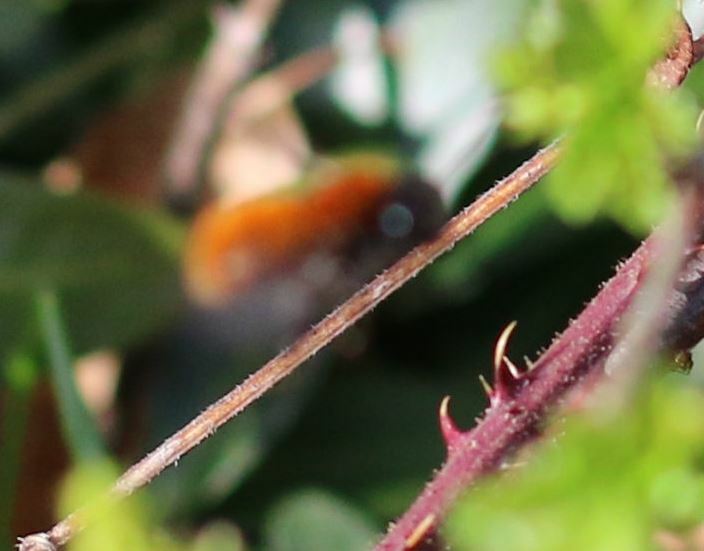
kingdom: Animalia
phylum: Arthropoda
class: Insecta
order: Hymenoptera
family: Andrenidae
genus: Andrena
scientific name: Andrena fulva
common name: Tawny mining bee
